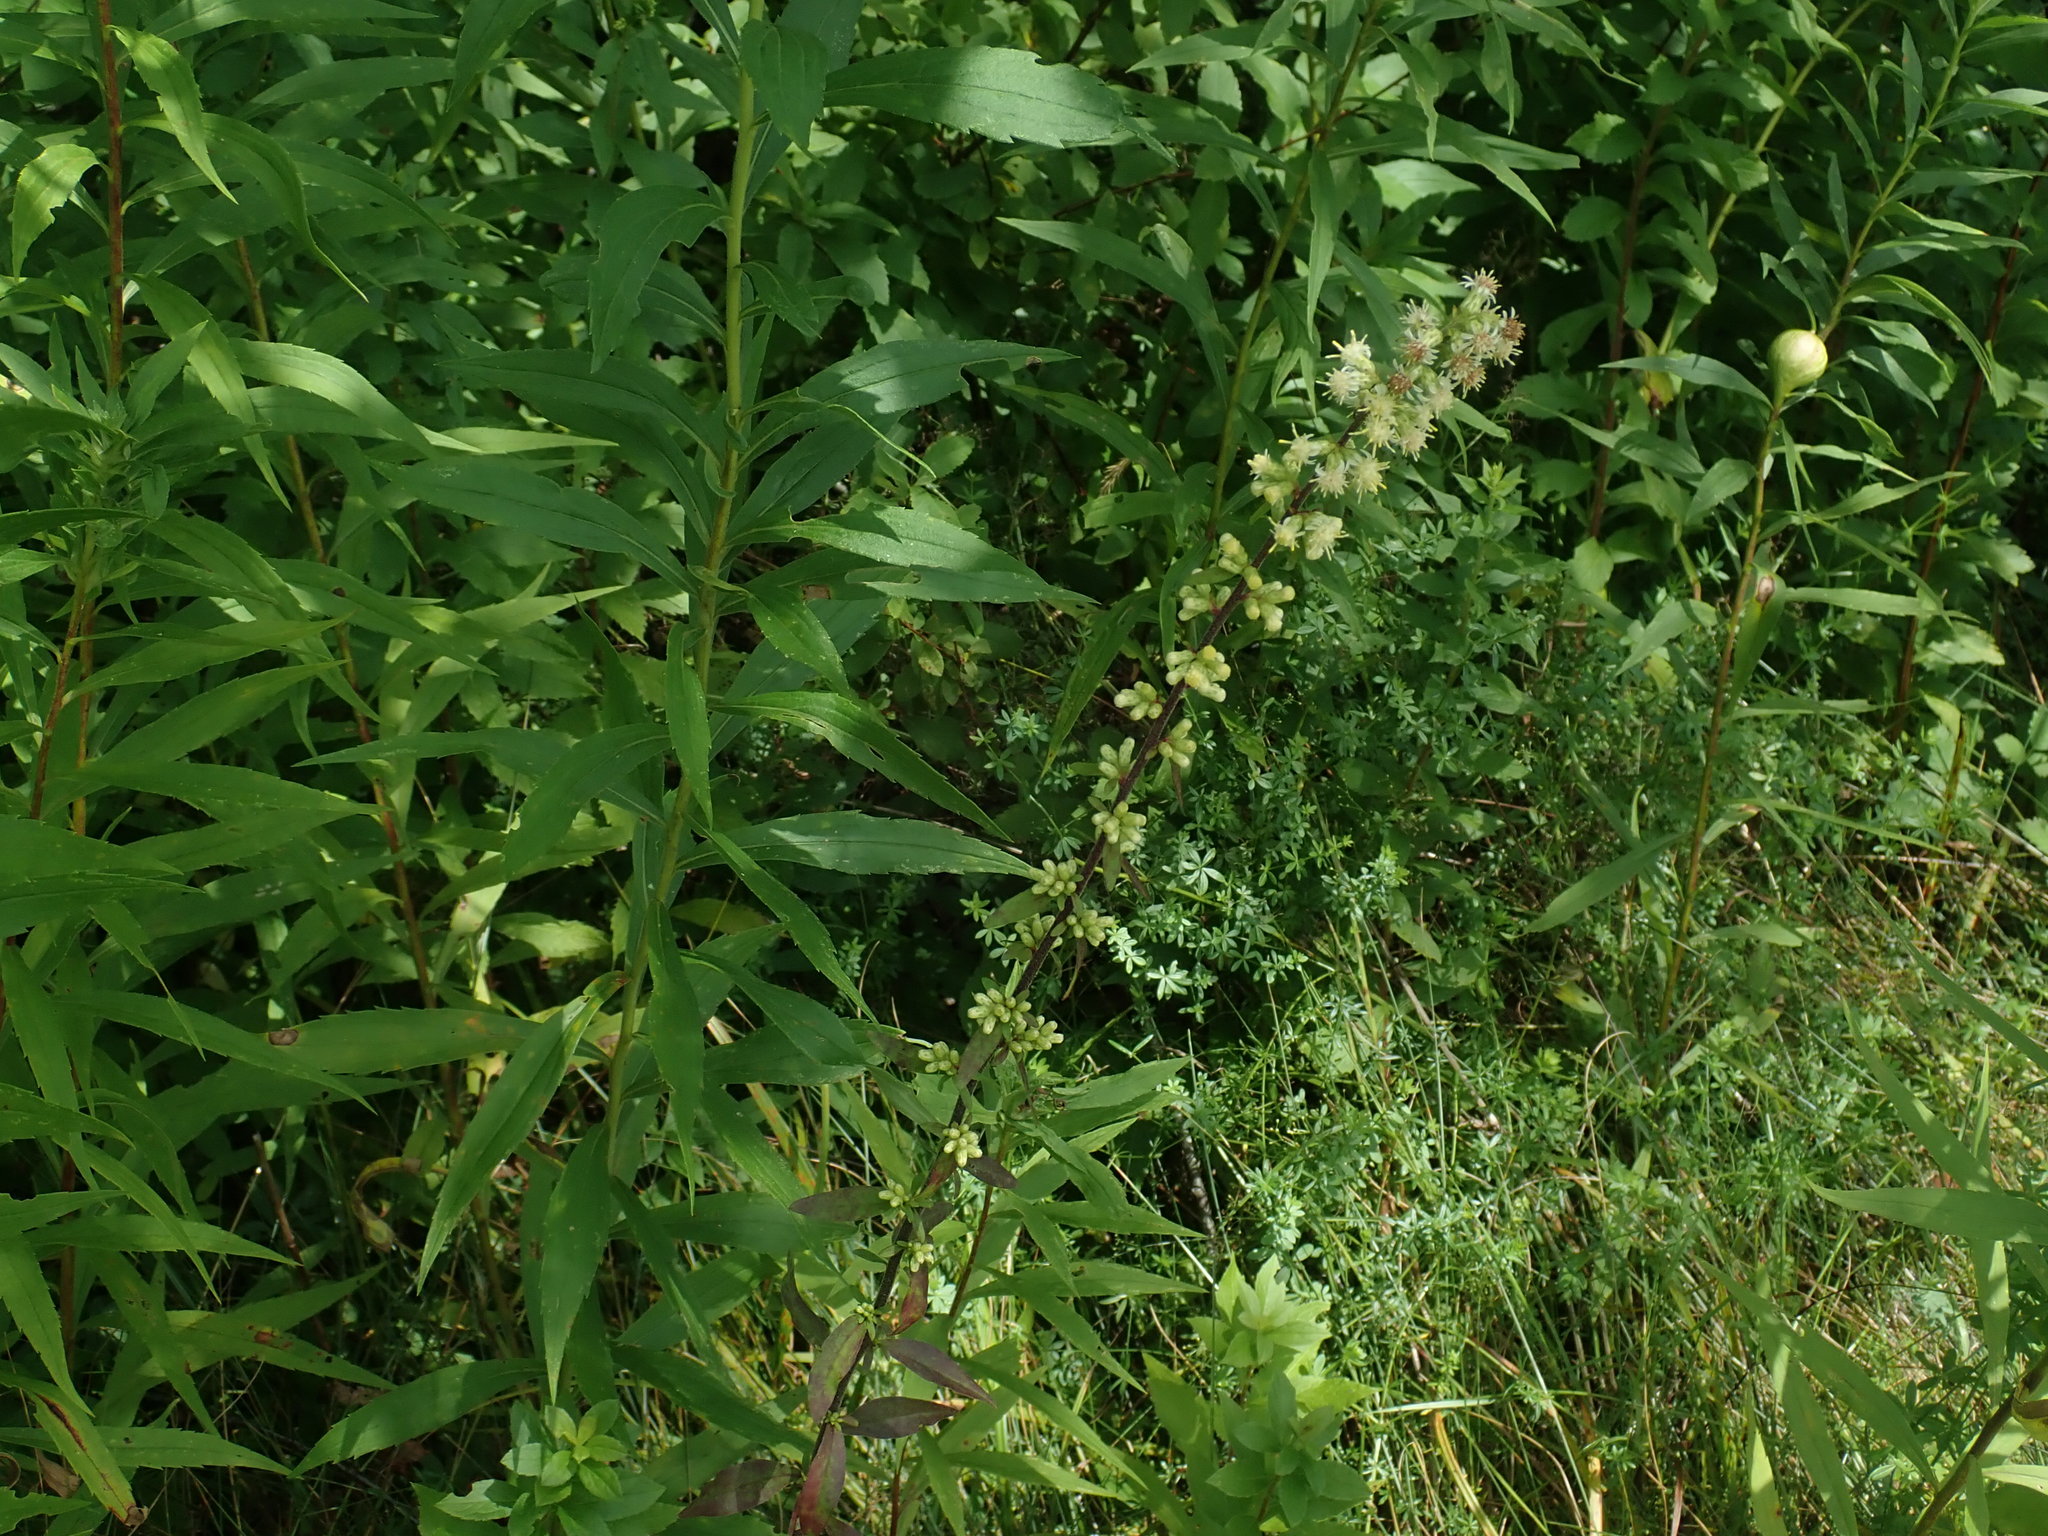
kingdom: Plantae
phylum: Tracheophyta
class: Magnoliopsida
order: Asterales
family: Asteraceae
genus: Solidago
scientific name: Solidago bicolor
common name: Silverrod
